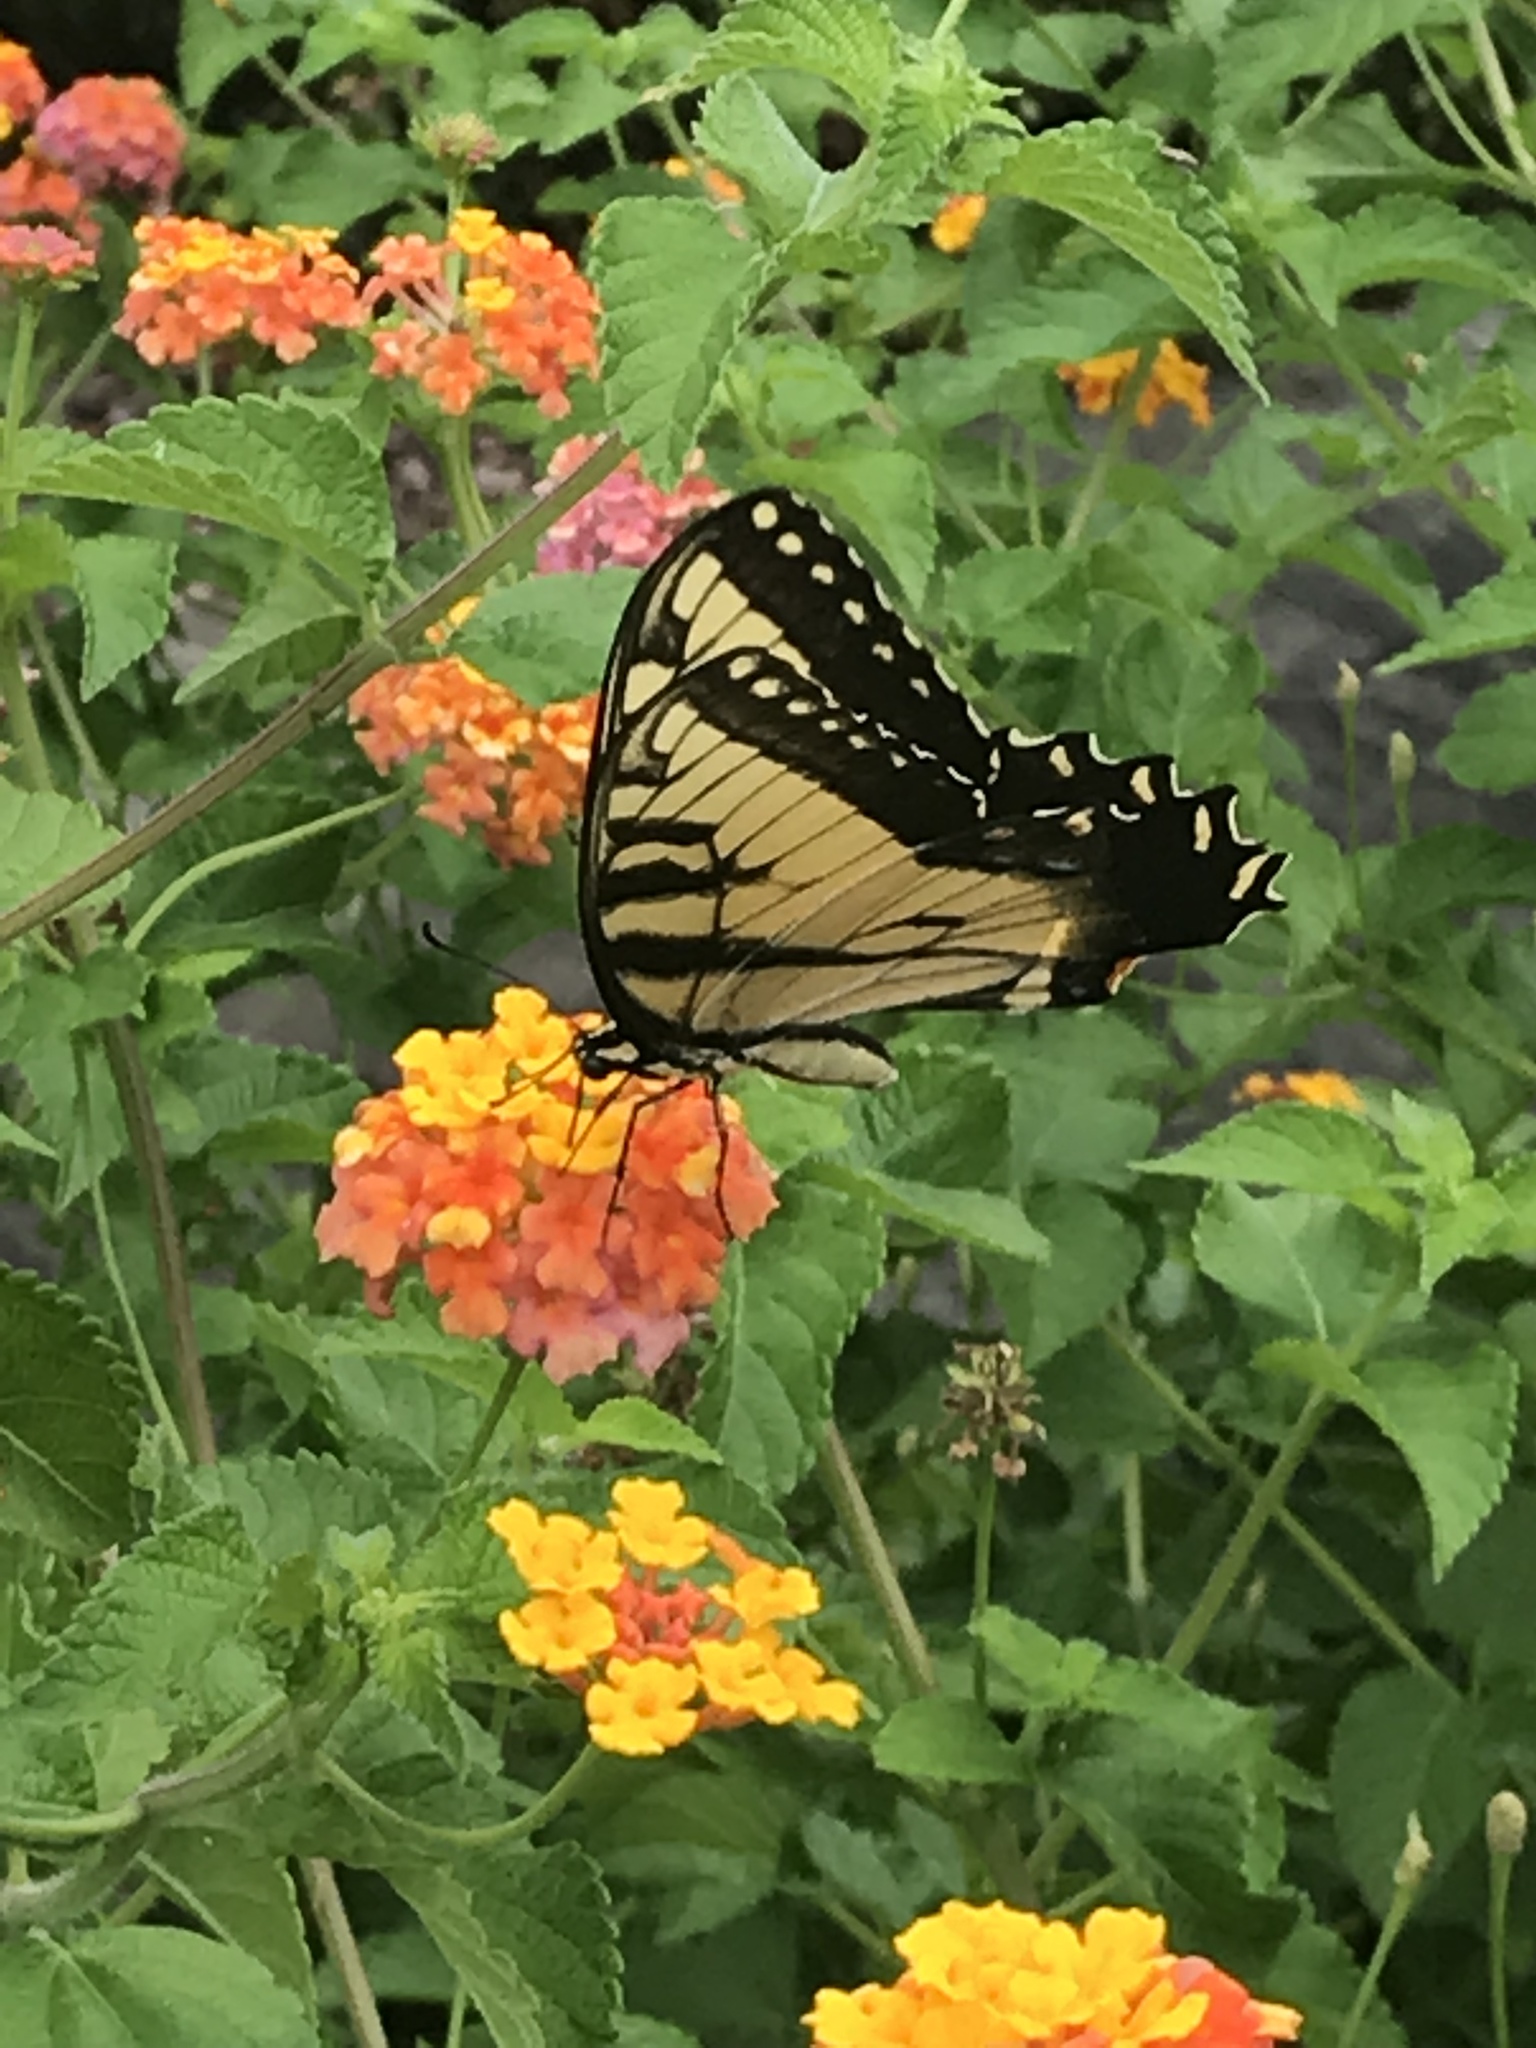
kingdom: Animalia
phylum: Arthropoda
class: Insecta
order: Lepidoptera
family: Papilionidae
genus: Papilio
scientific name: Papilio glaucus
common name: Tiger swallowtail
